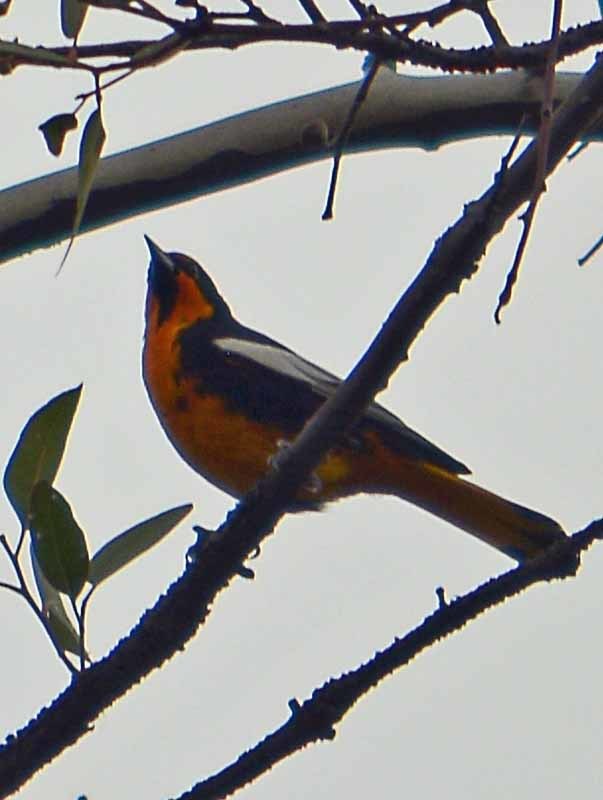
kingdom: Animalia
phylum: Chordata
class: Aves
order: Passeriformes
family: Icteridae
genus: Icterus
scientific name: Icterus abeillei
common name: Black-backed oriole
